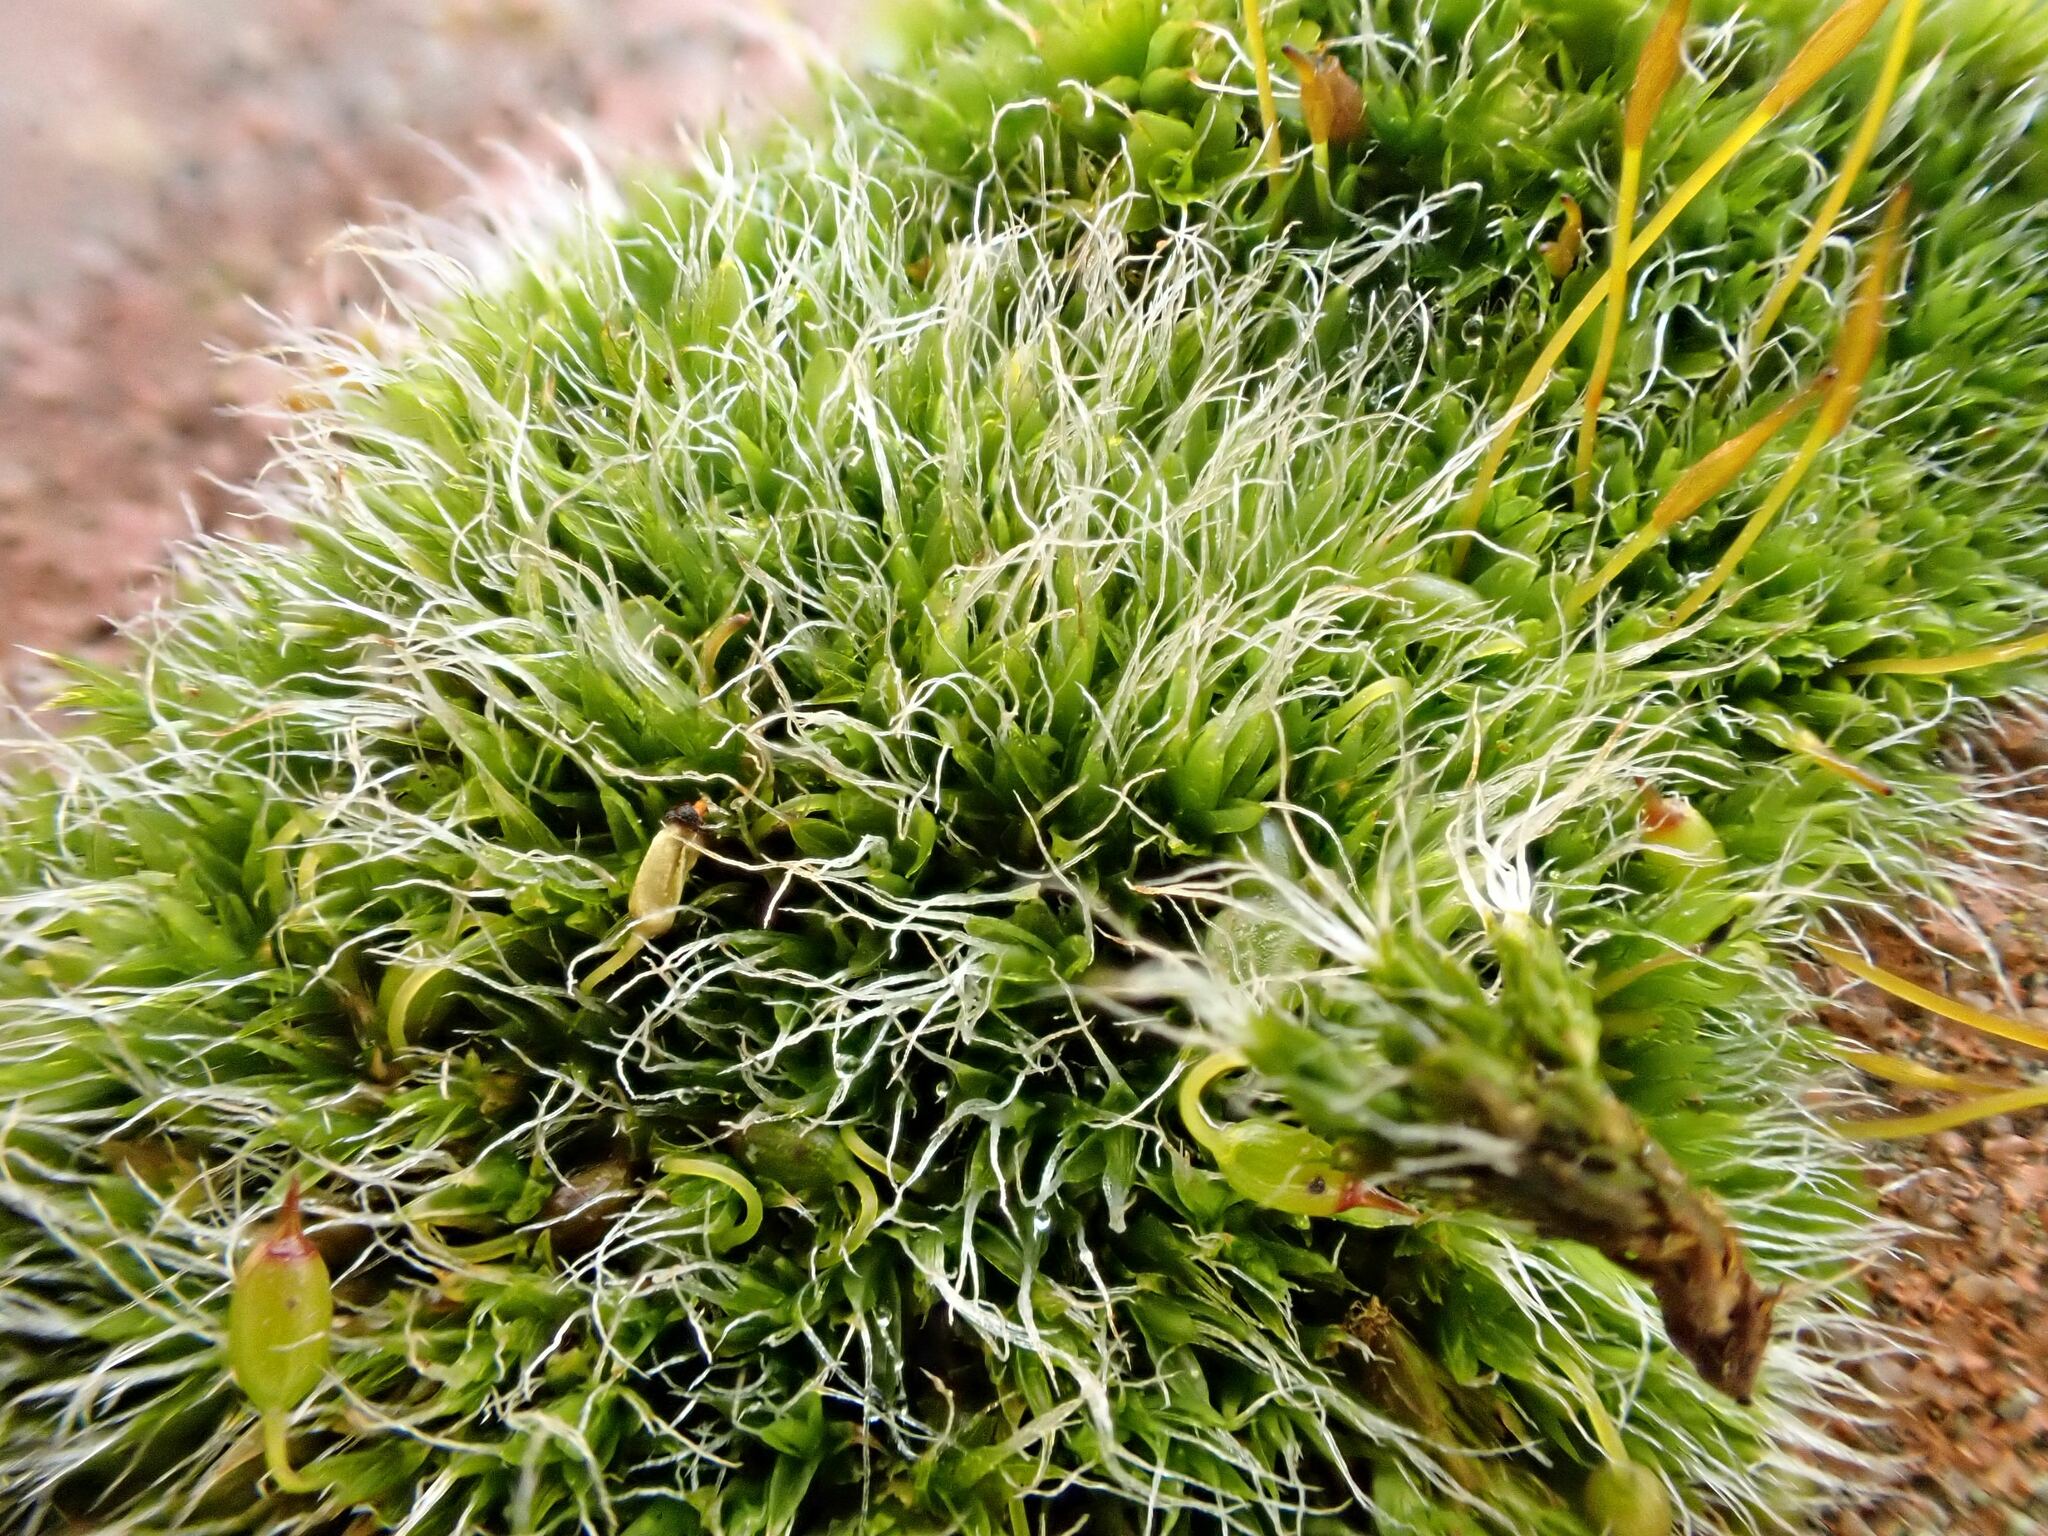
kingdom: Plantae
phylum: Bryophyta
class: Bryopsida
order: Grimmiales
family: Grimmiaceae
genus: Grimmia
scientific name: Grimmia pulvinata
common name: Grey-cushioned grimmia
